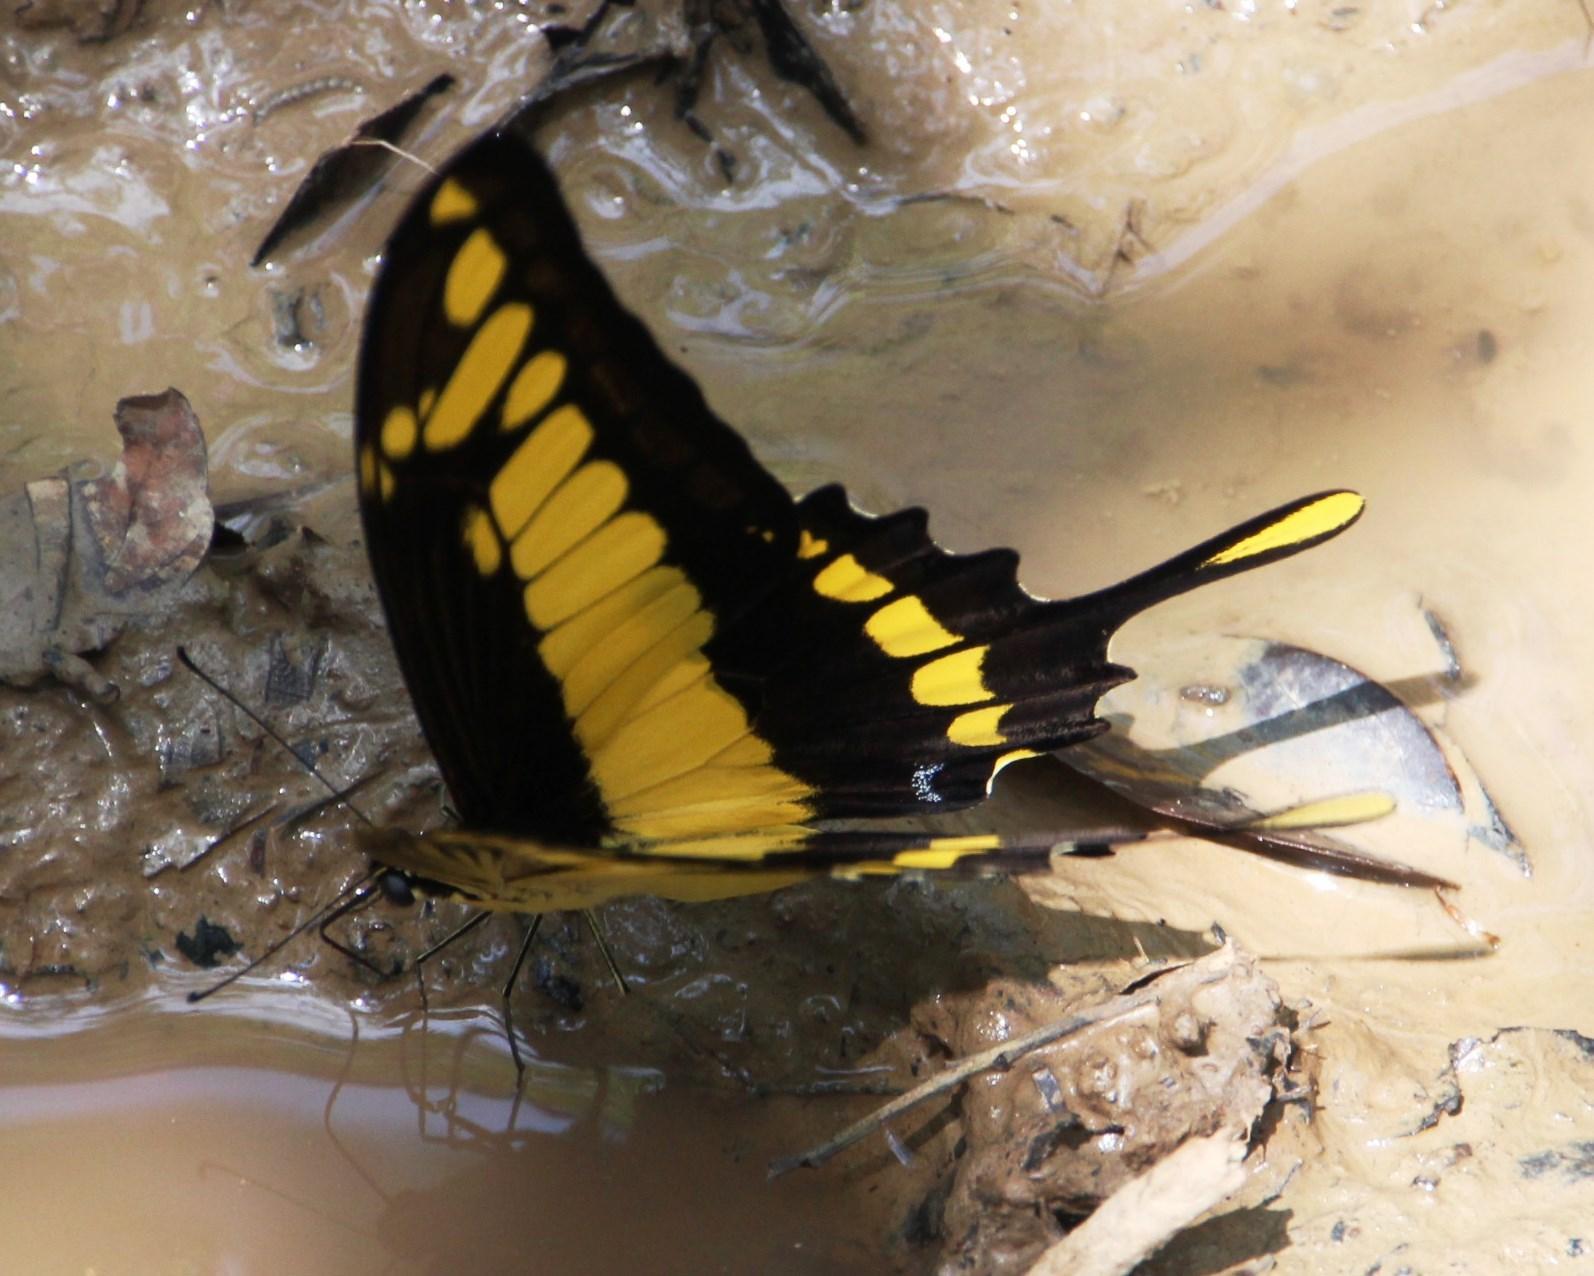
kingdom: Animalia
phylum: Arthropoda
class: Insecta
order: Lepidoptera
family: Papilionidae
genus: Papilio
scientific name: Papilio thoas
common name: King swallowtail
